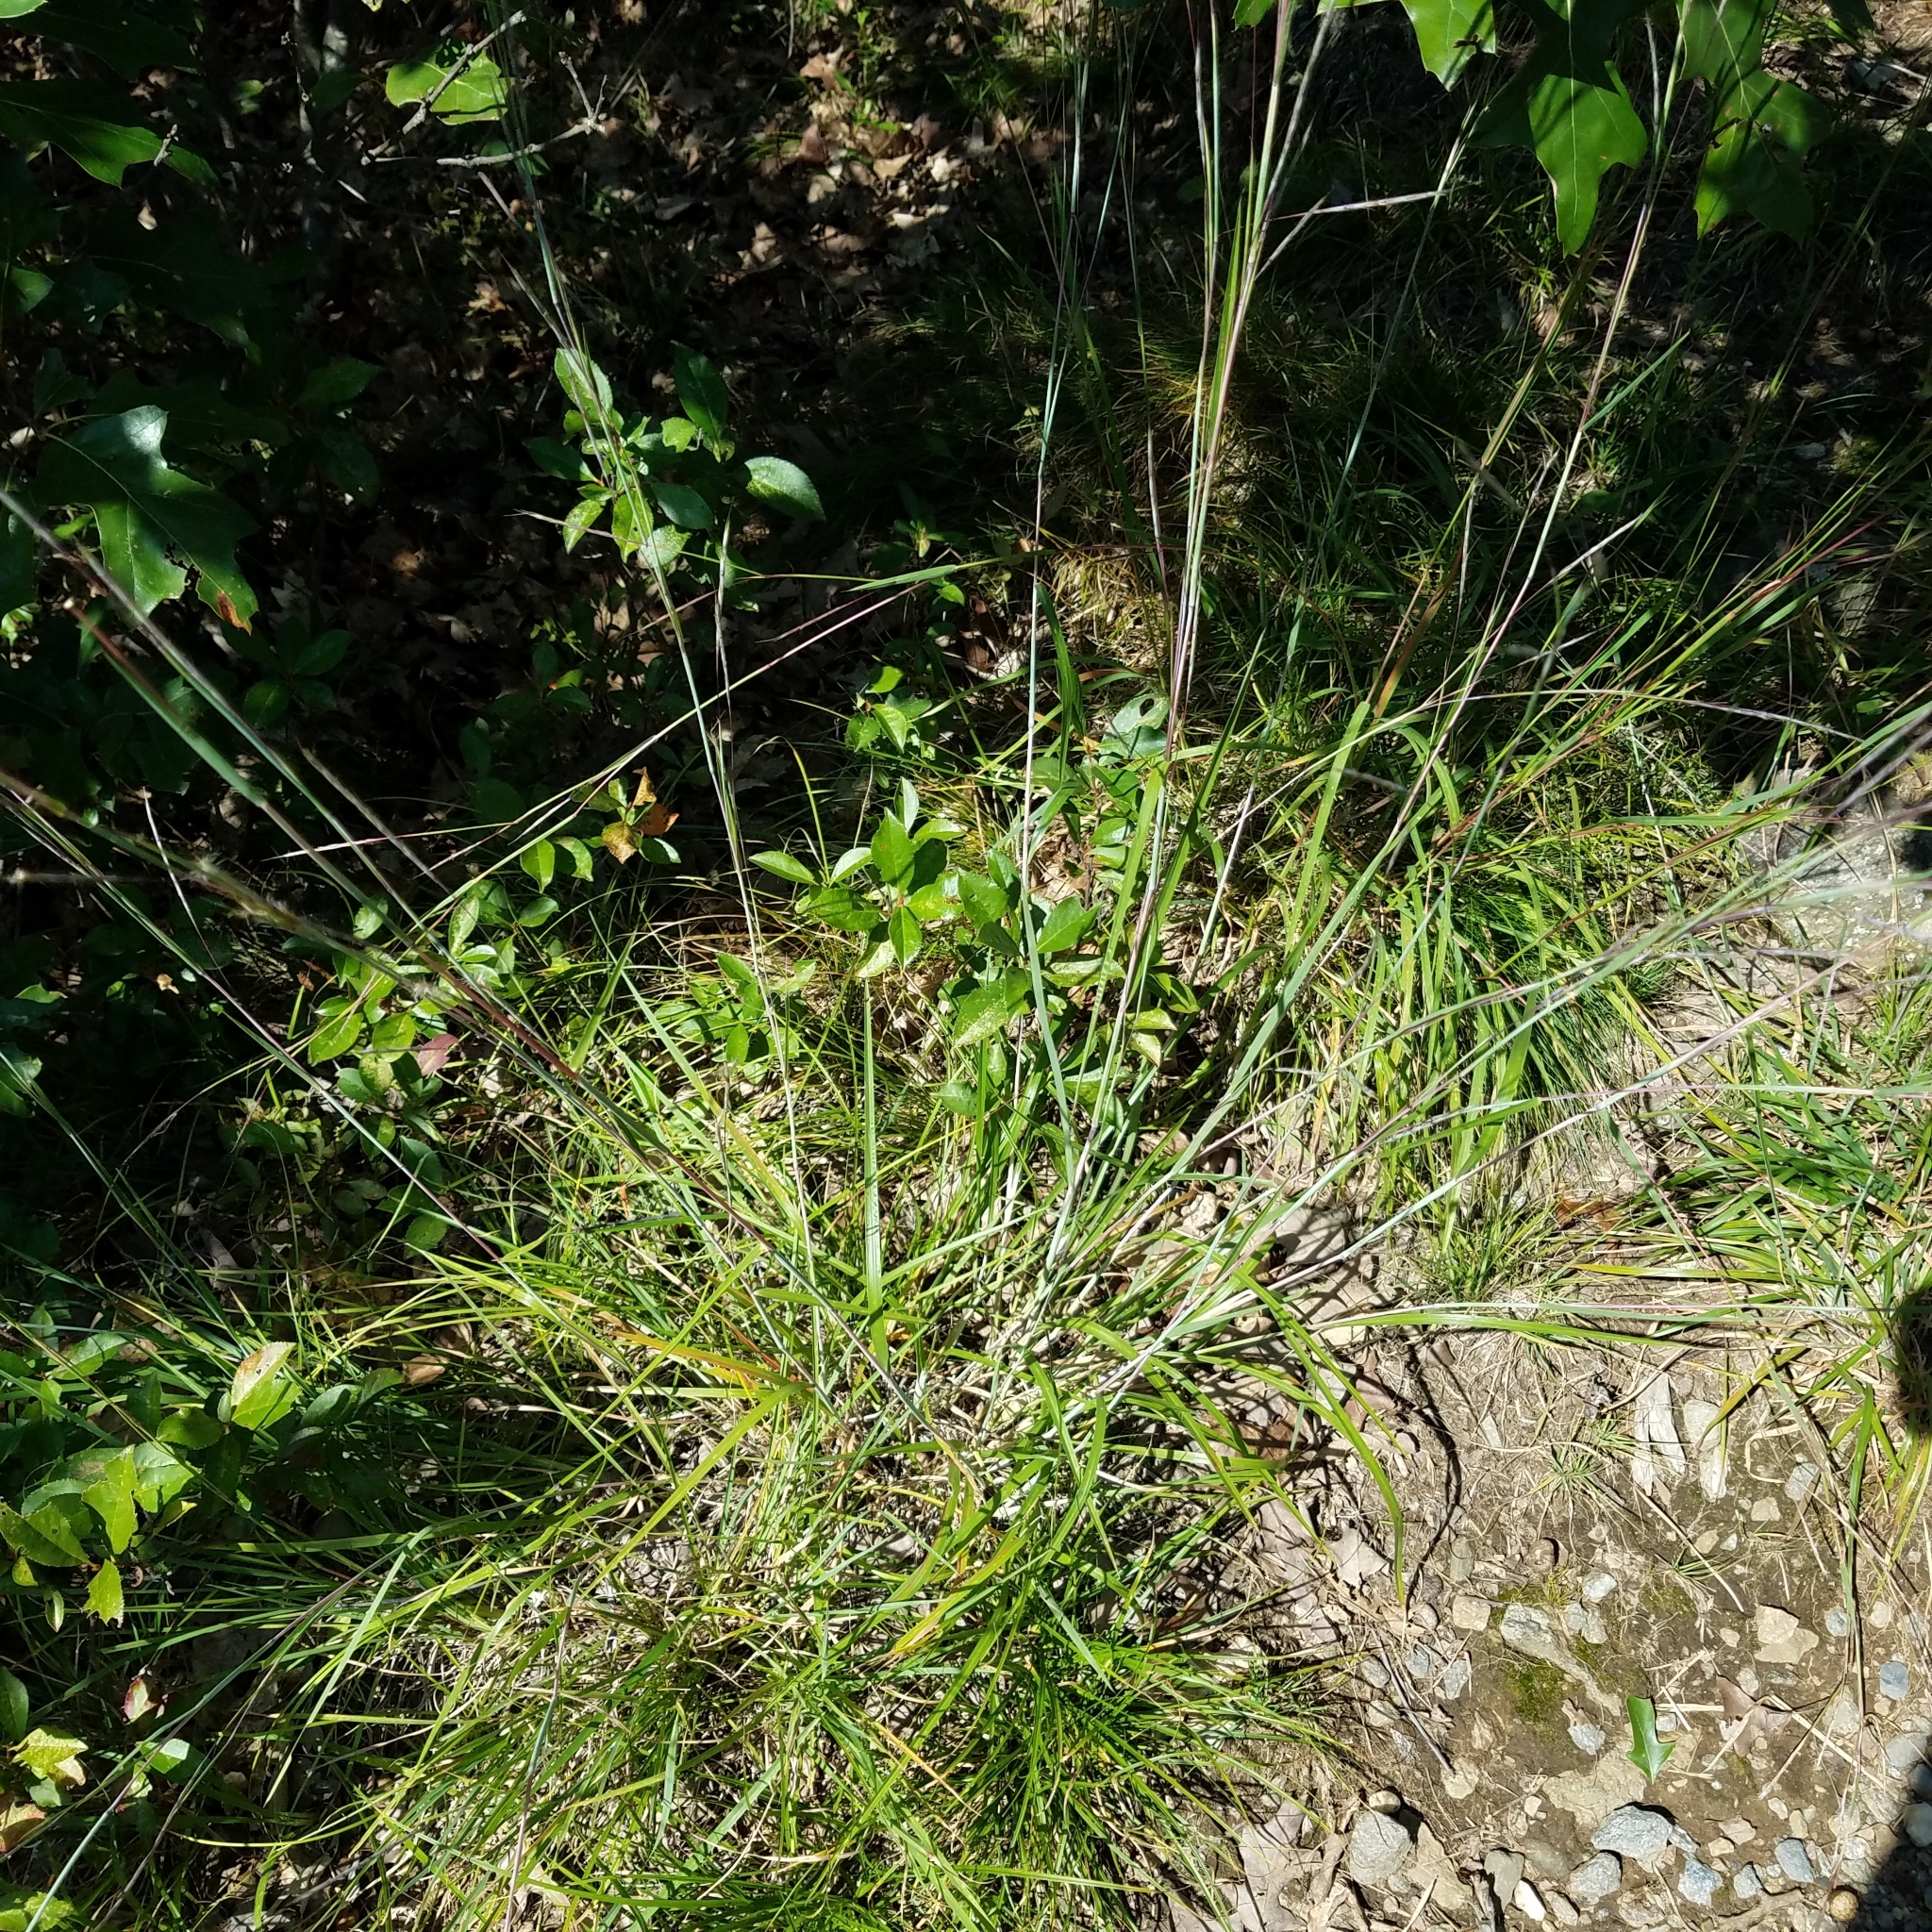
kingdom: Plantae
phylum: Tracheophyta
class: Liliopsida
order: Poales
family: Poaceae
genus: Schizachyrium
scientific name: Schizachyrium scoparium
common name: Little bluestem
